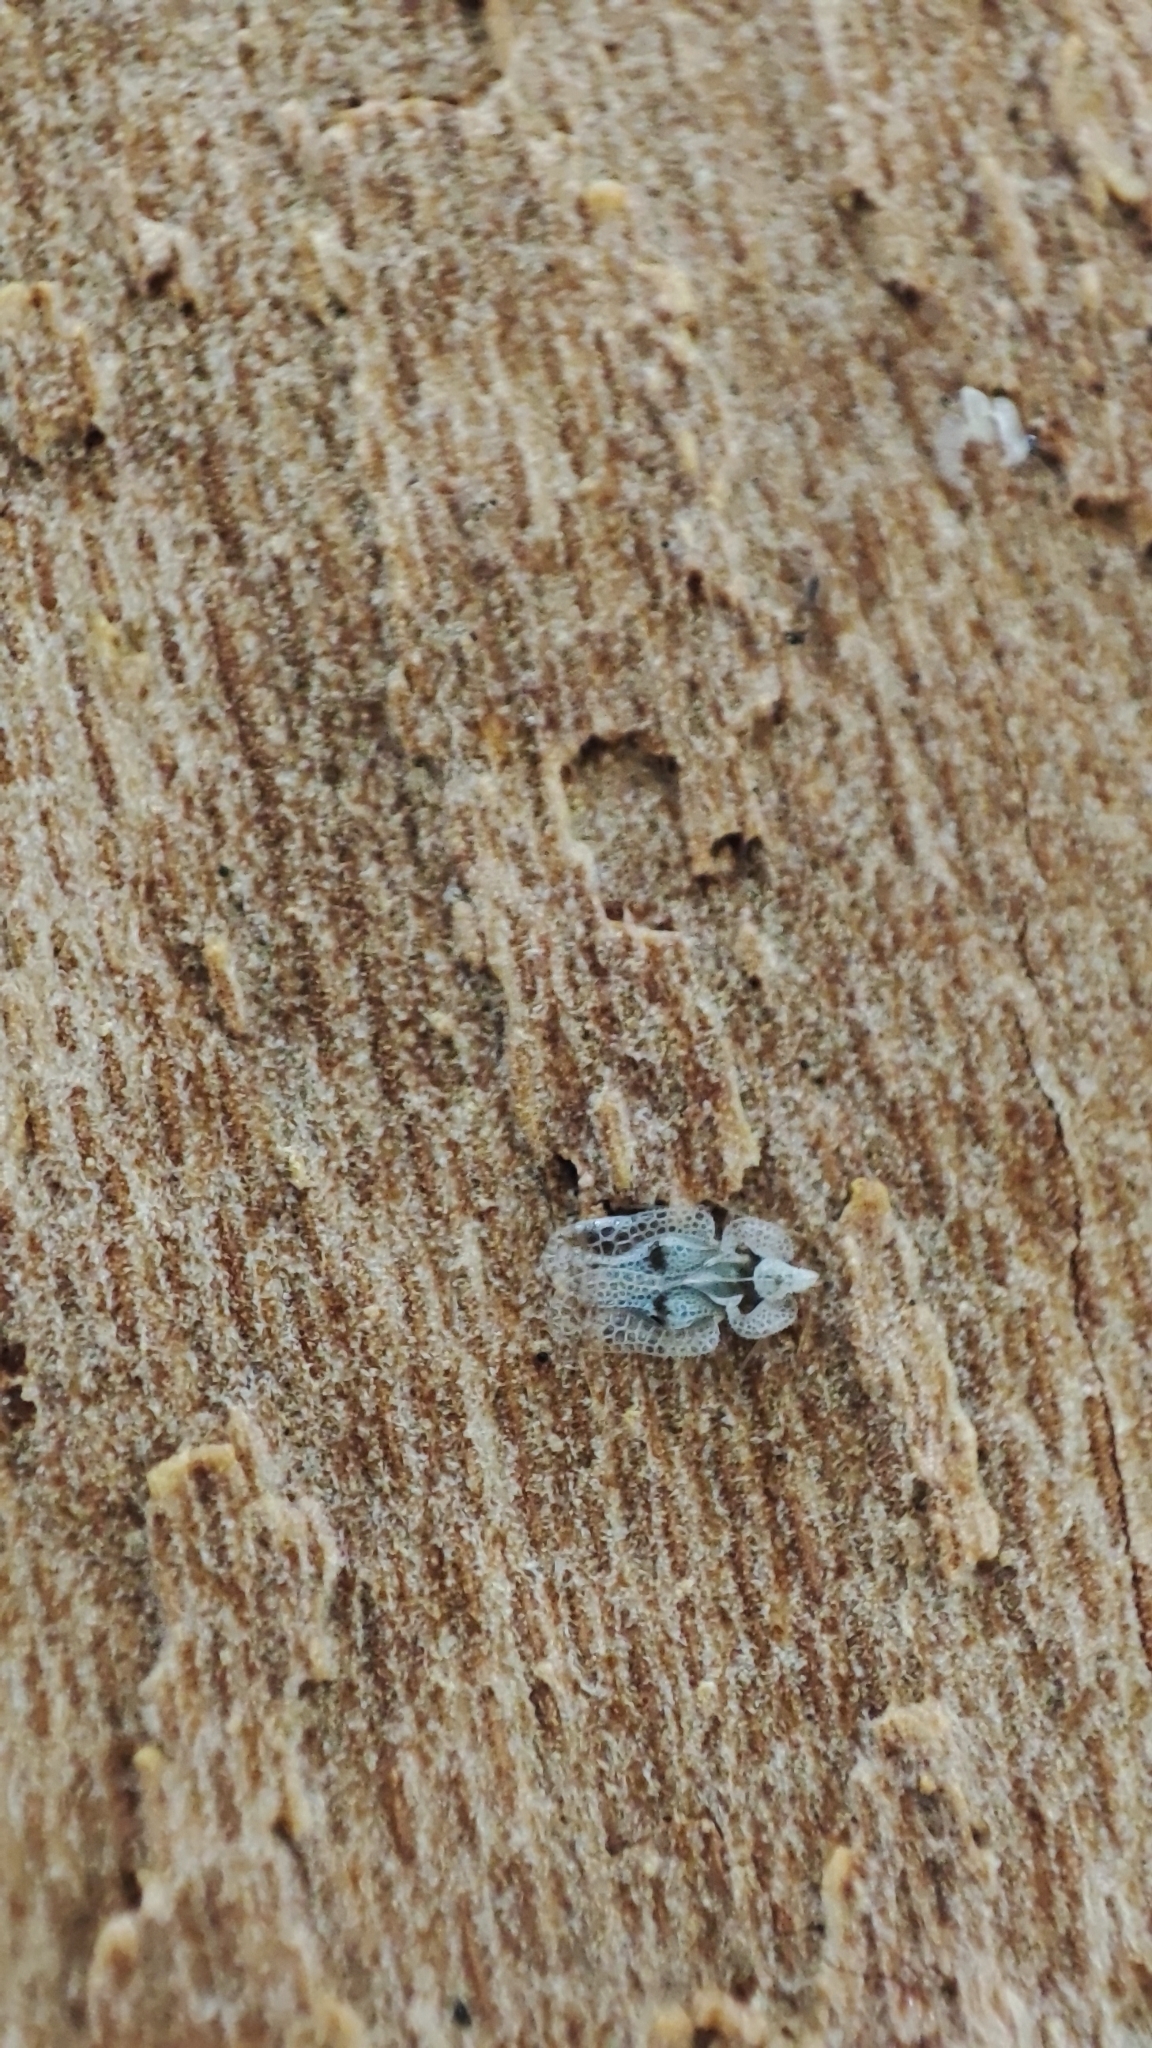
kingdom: Animalia
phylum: Arthropoda
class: Insecta
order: Hemiptera
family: Tingidae
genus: Corythucha
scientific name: Corythucha ciliata
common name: Sycamore lace bug
